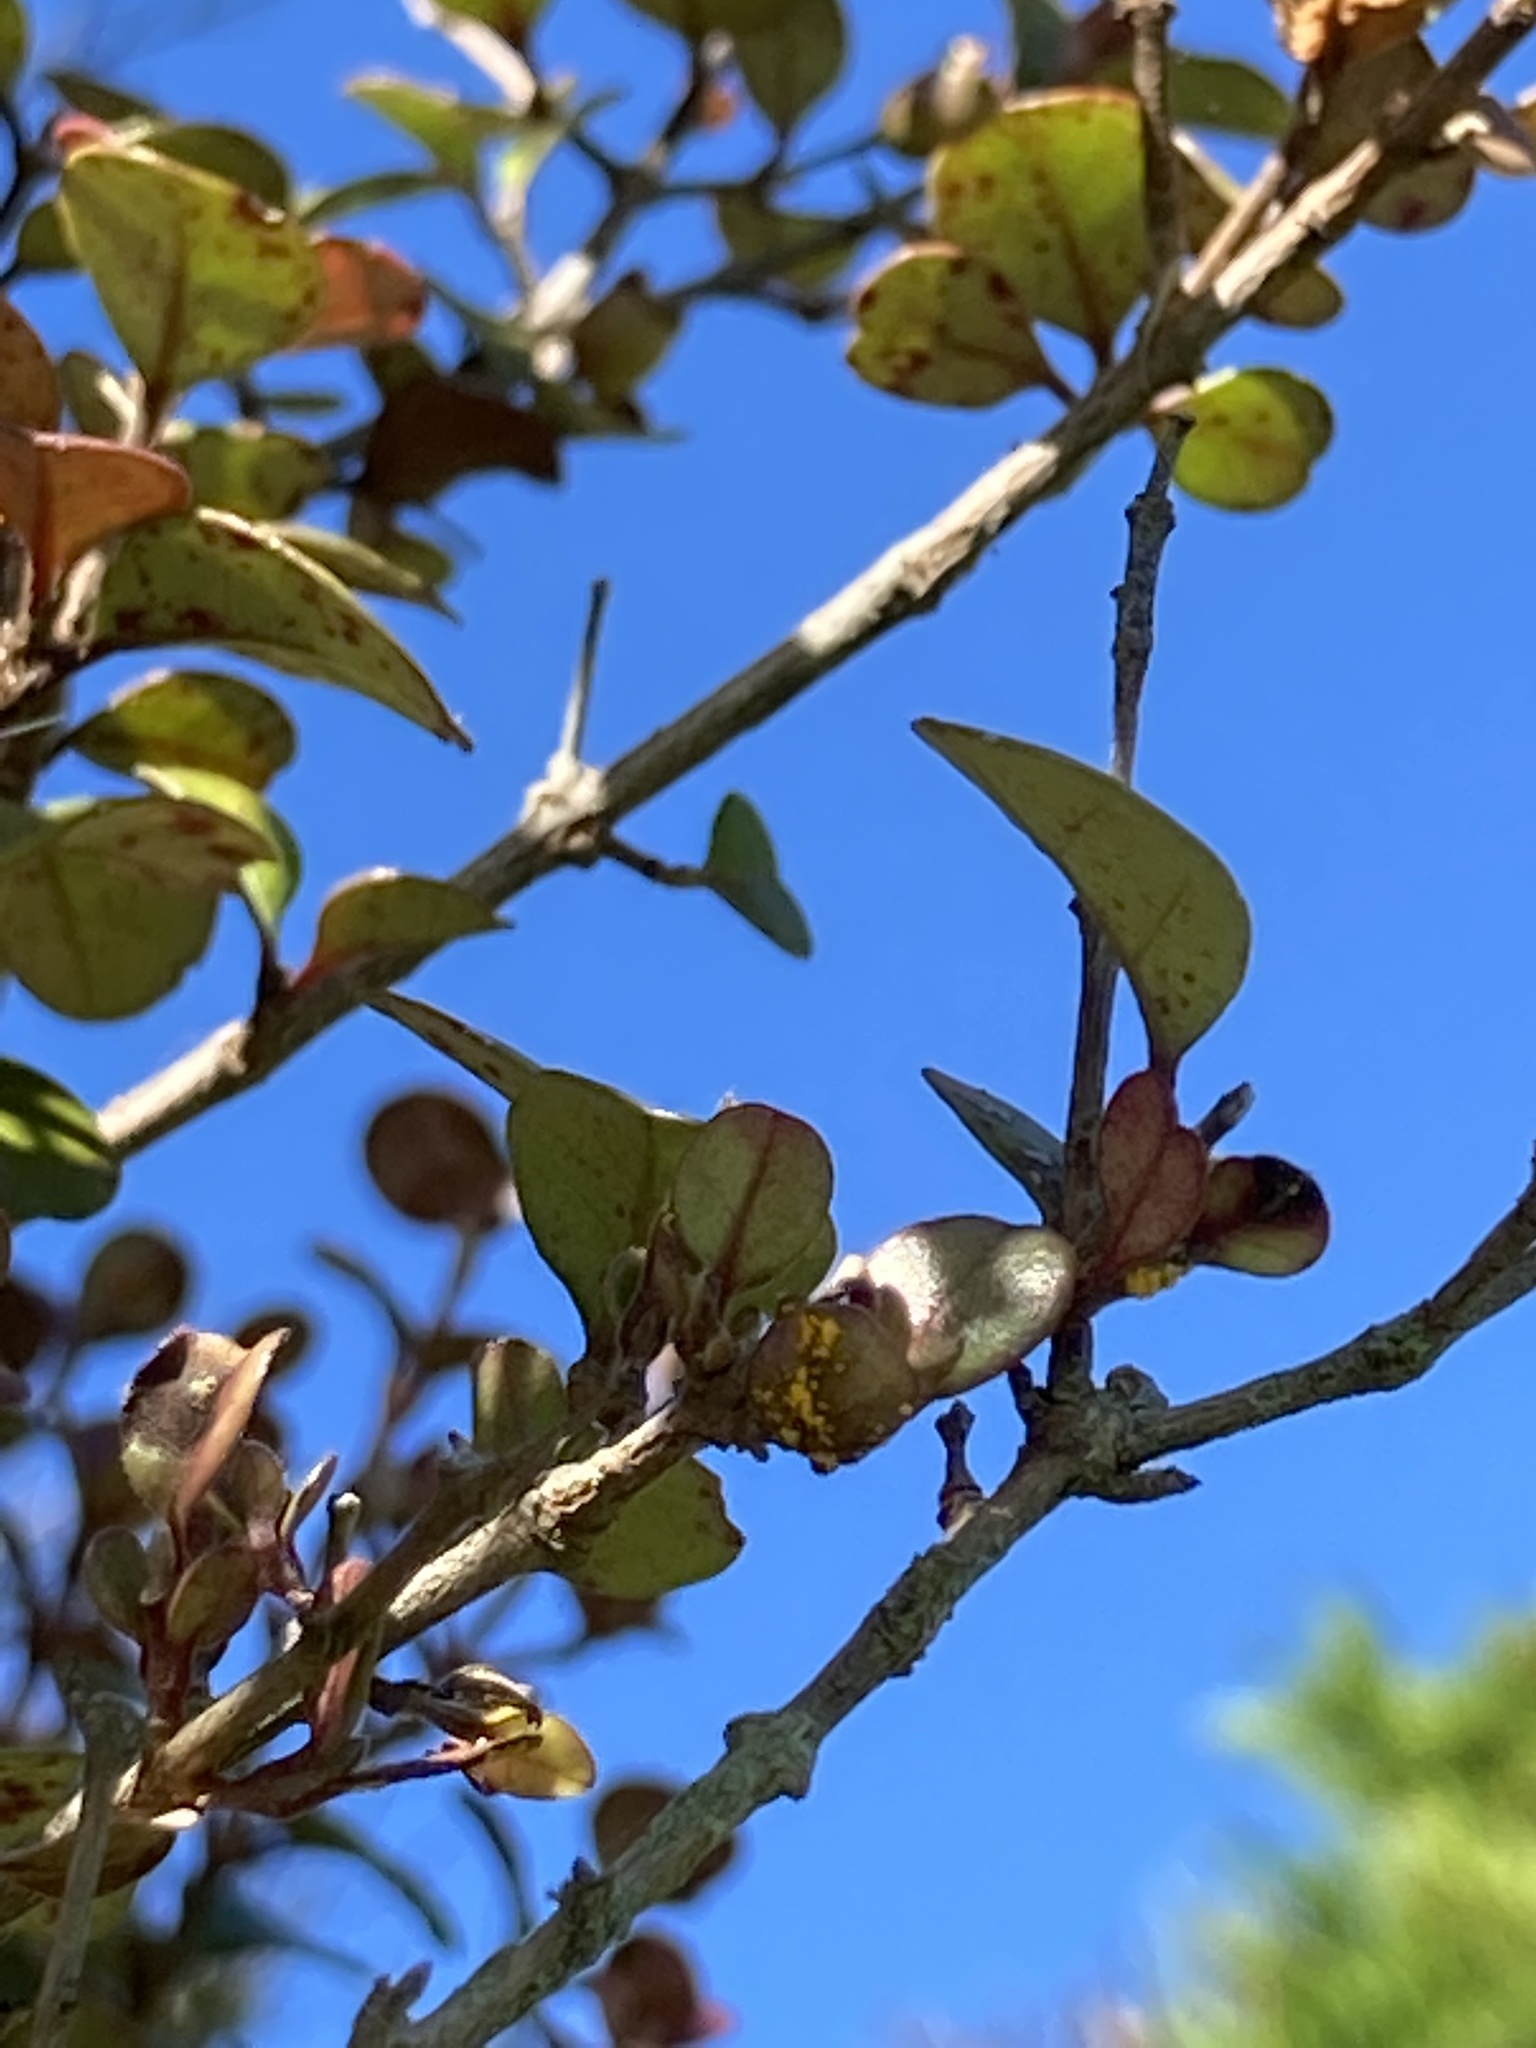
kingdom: Fungi
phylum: Basidiomycota
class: Pucciniomycetes
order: Pucciniales
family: Sphaerophragmiaceae
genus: Austropuccinia
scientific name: Austropuccinia psidii
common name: Myrtle rust
